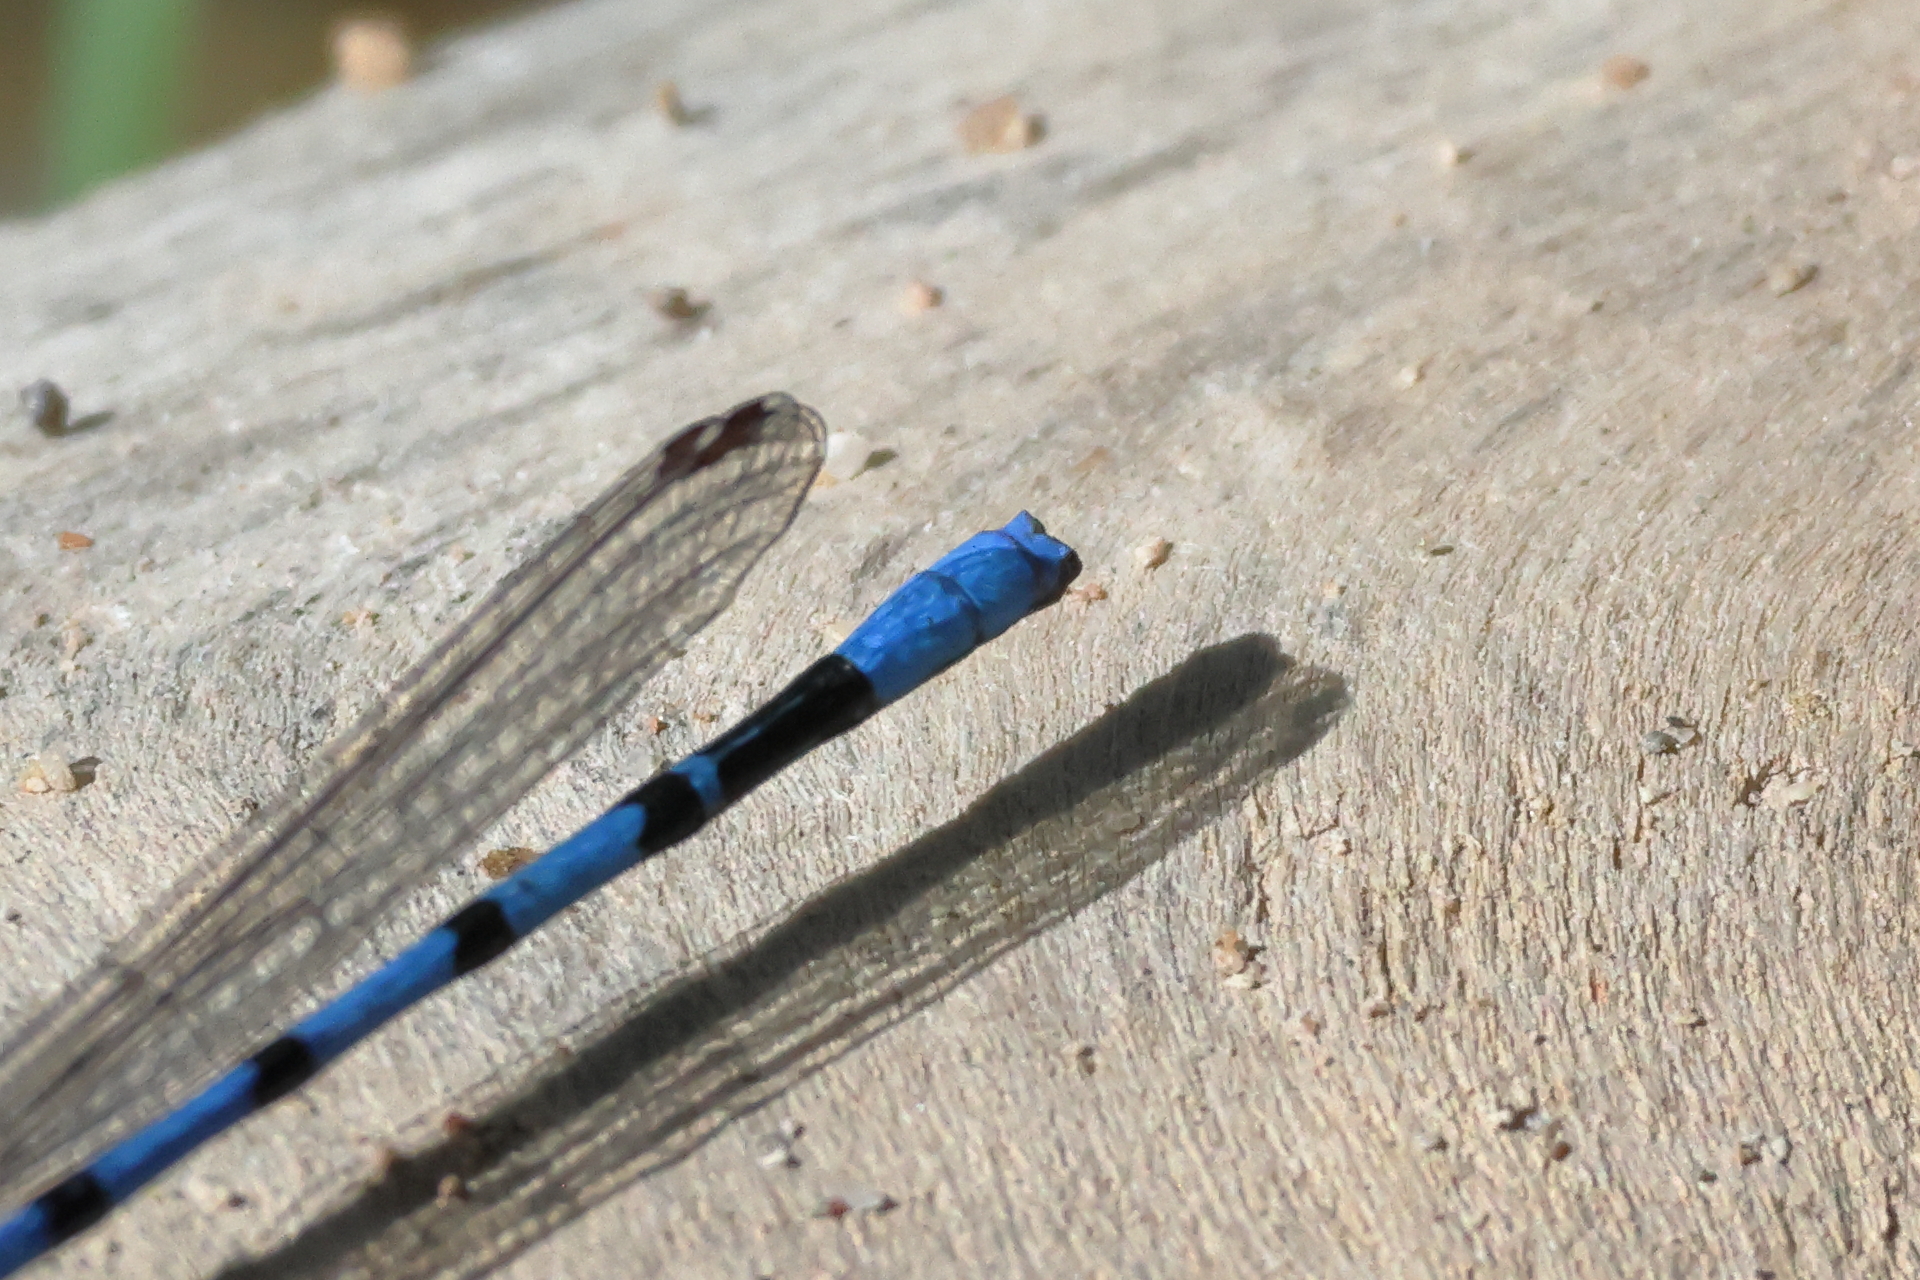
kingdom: Animalia
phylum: Arthropoda
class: Insecta
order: Odonata
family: Coenagrionidae
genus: Argia
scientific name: Argia nahuana
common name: Aztec dancer
